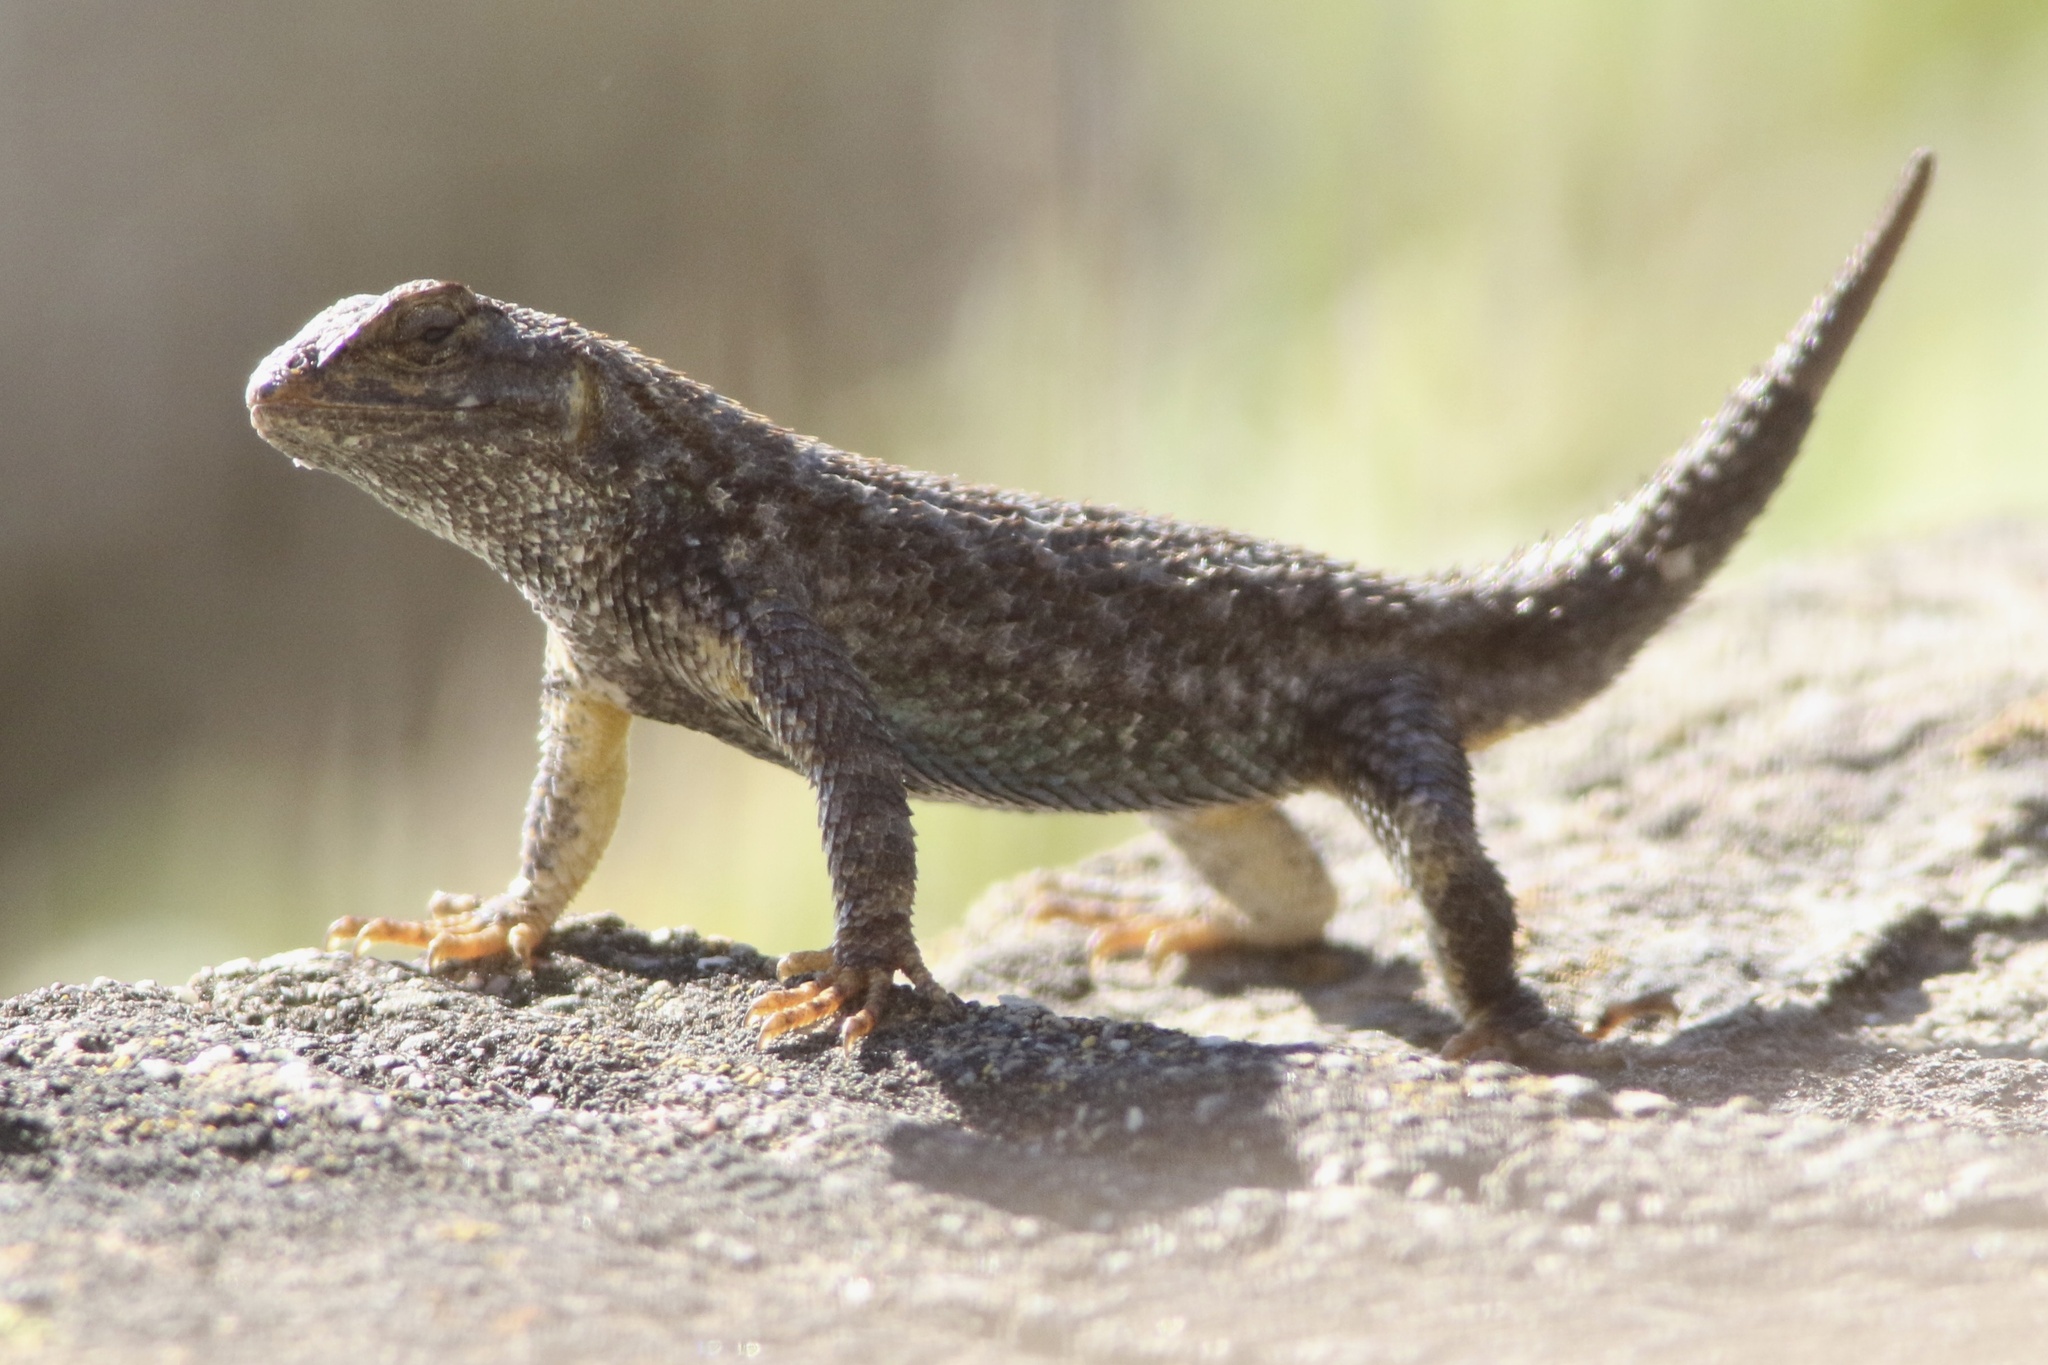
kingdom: Animalia
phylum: Chordata
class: Squamata
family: Phrynosomatidae
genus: Sceloporus
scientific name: Sceloporus occidentalis
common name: Western fence lizard
